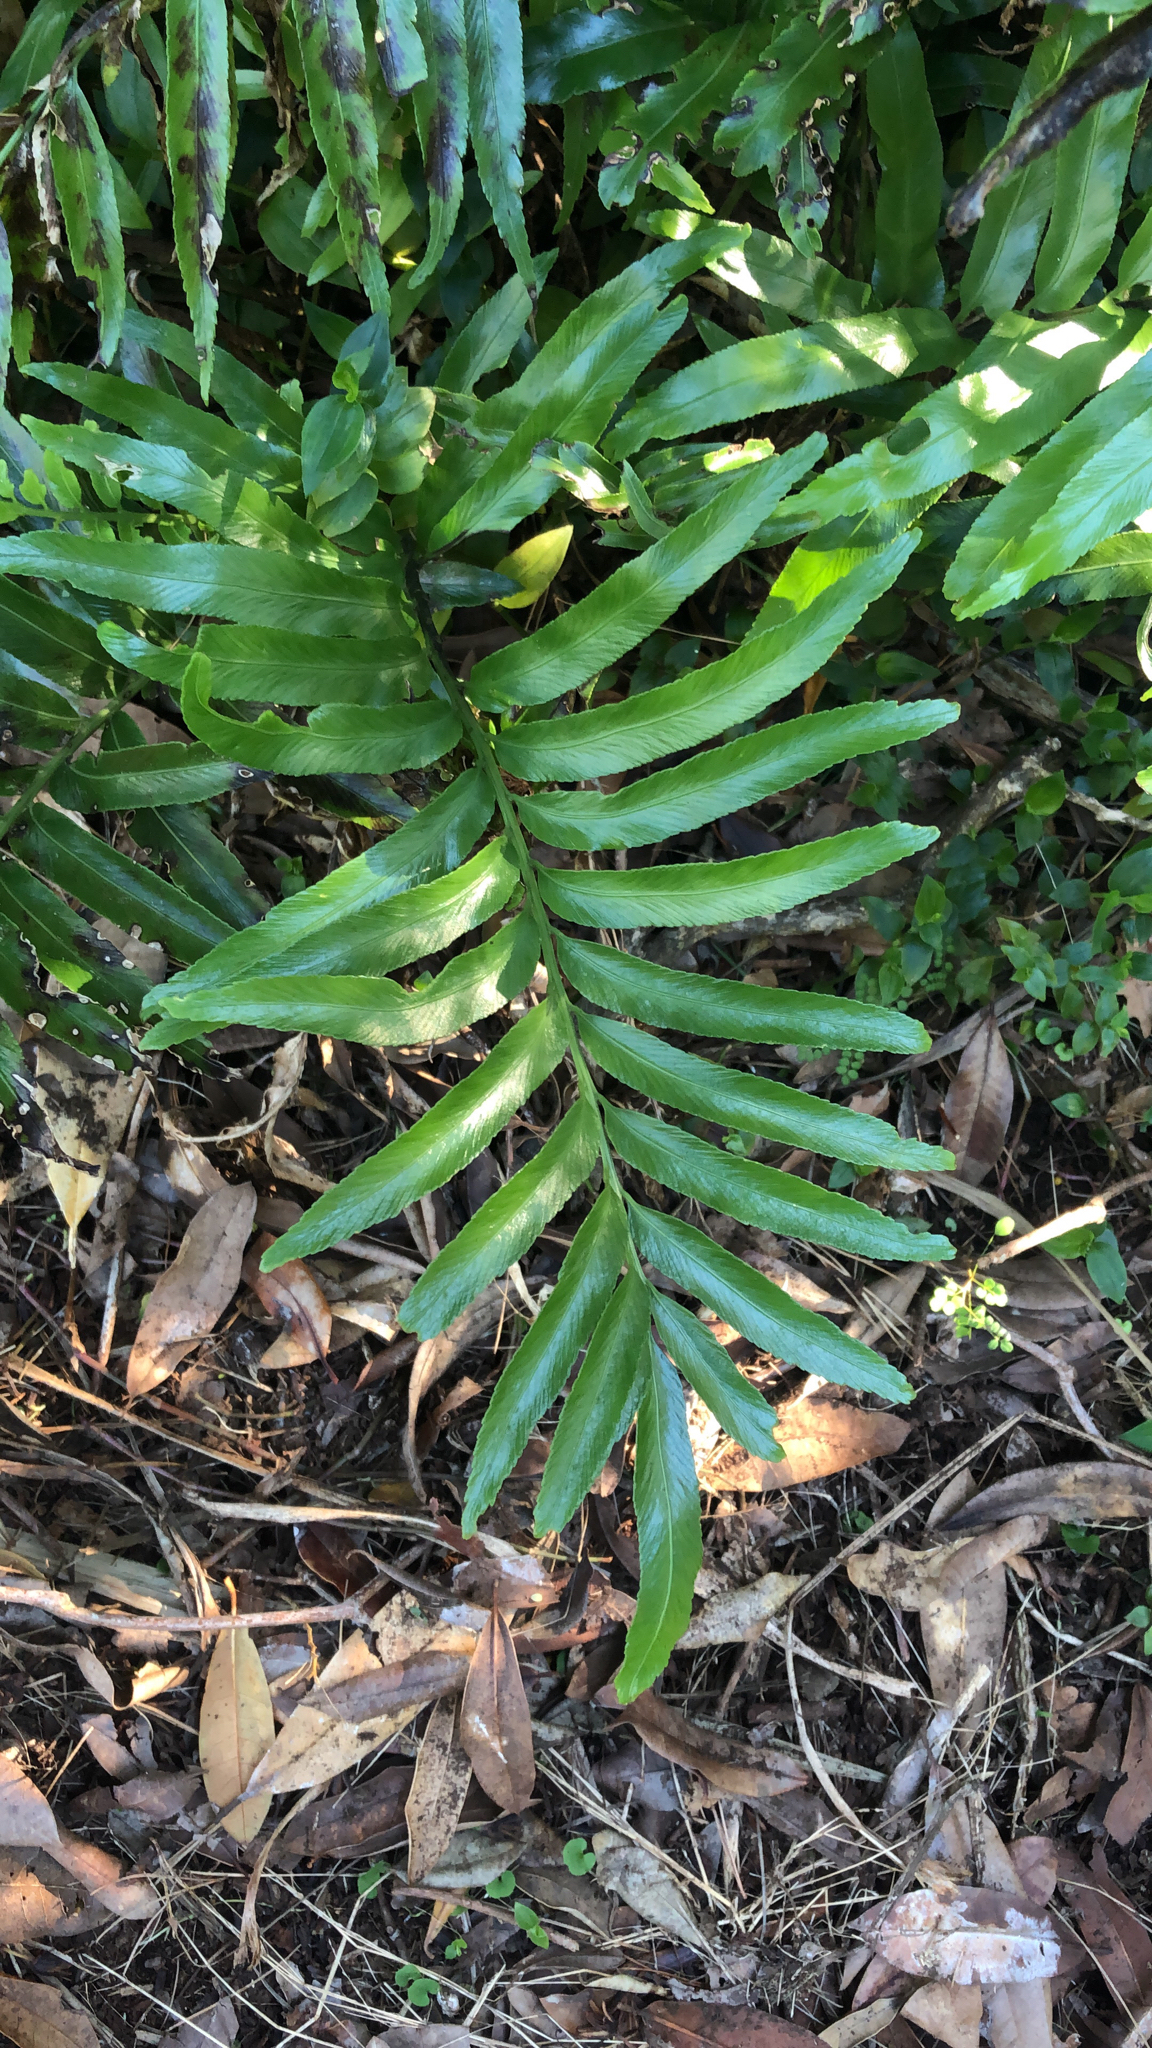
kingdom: Plantae
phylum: Tracheophyta
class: Polypodiopsida
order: Polypodiales
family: Aspleniaceae
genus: Asplenium
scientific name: Asplenium oblongifolium
